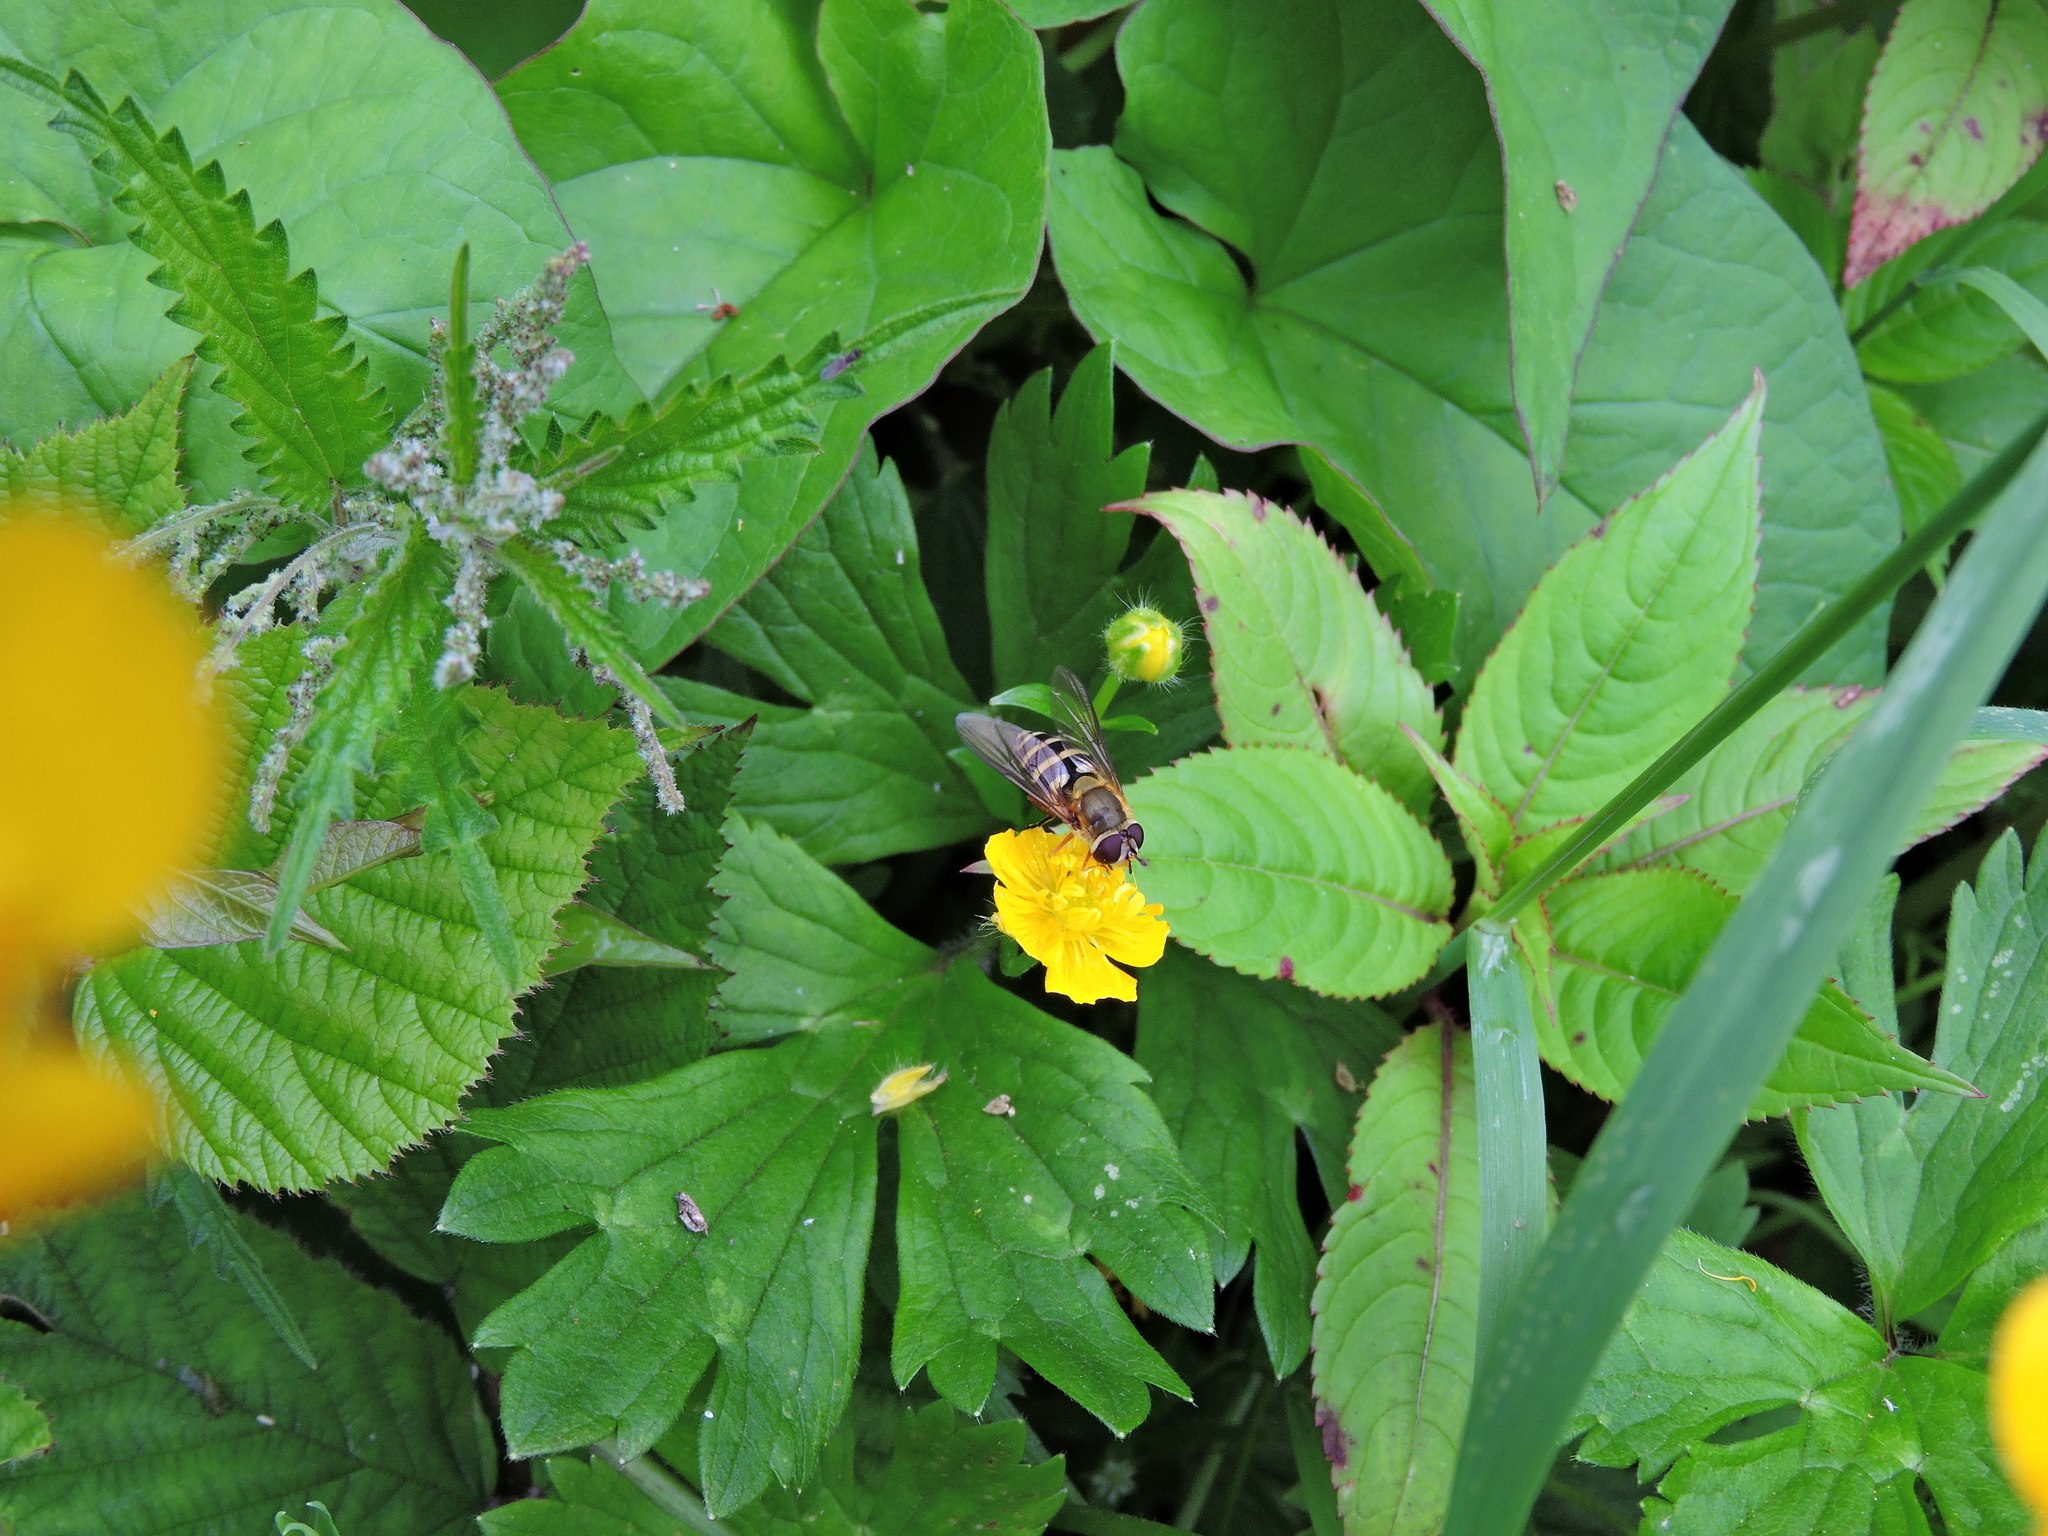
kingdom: Animalia
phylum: Arthropoda
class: Insecta
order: Diptera
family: Syrphidae
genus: Syrphus
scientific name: Syrphus ribesii
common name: Common flower fly
